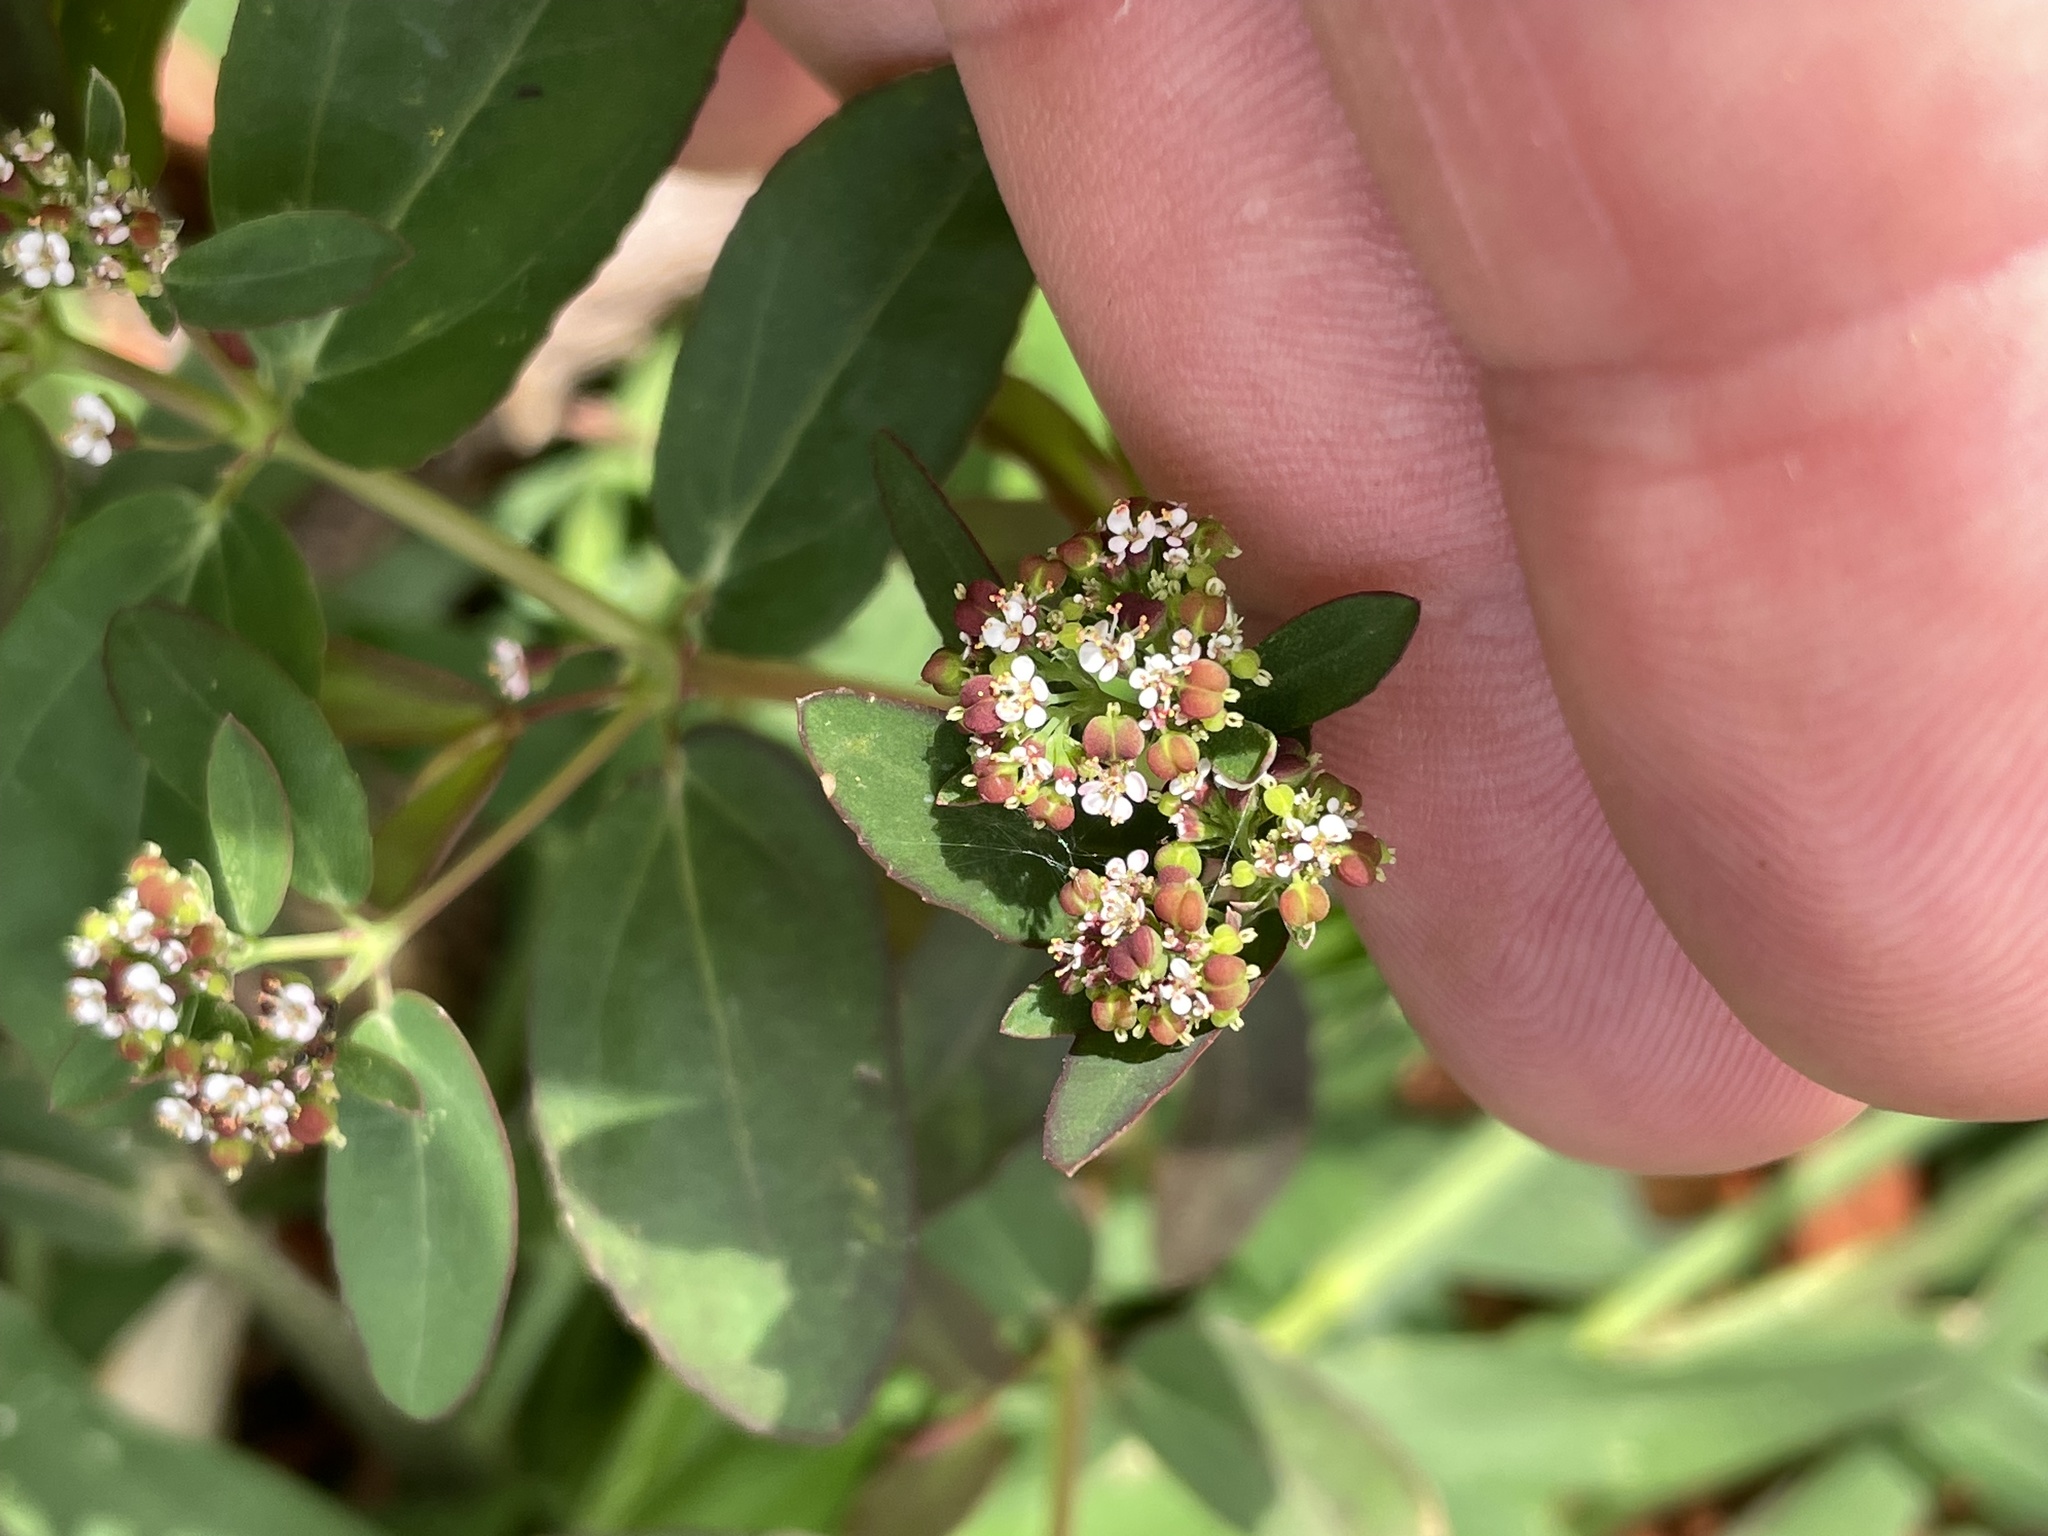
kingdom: Plantae
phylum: Tracheophyta
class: Magnoliopsida
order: Malpighiales
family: Euphorbiaceae
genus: Euphorbia
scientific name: Euphorbia hypericifolia
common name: Graceful sandmat
